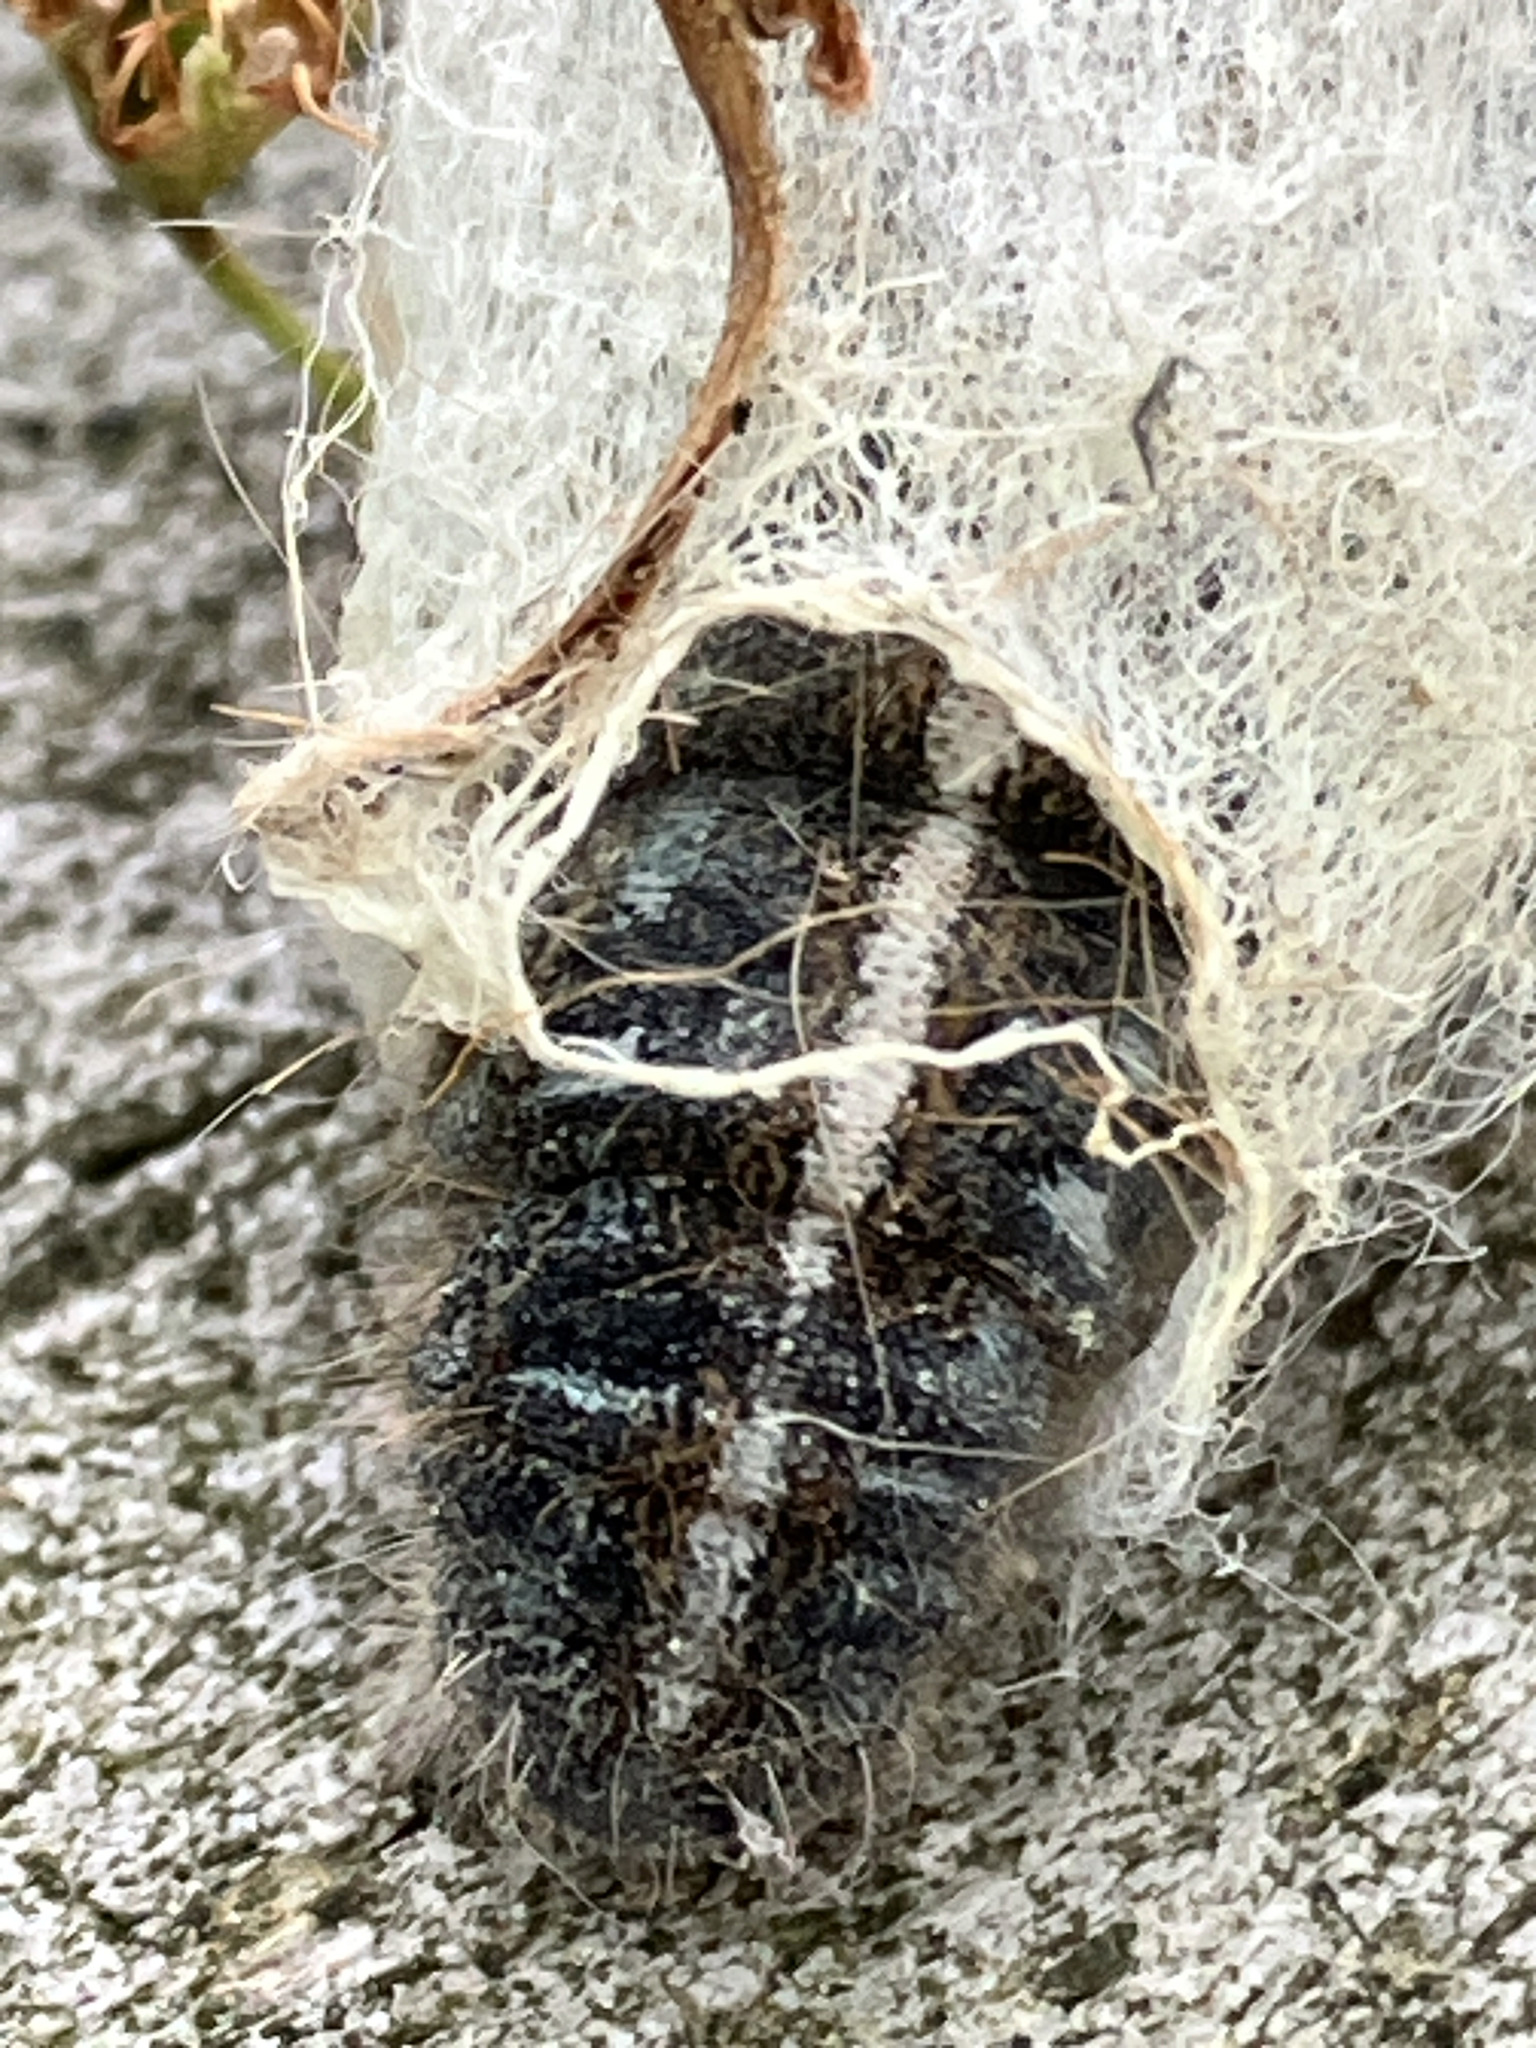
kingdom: Animalia
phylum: Arthropoda
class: Insecta
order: Lepidoptera
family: Lasiocampidae
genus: Malacosoma
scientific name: Malacosoma americana
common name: Eastern tent caterpillar moth
